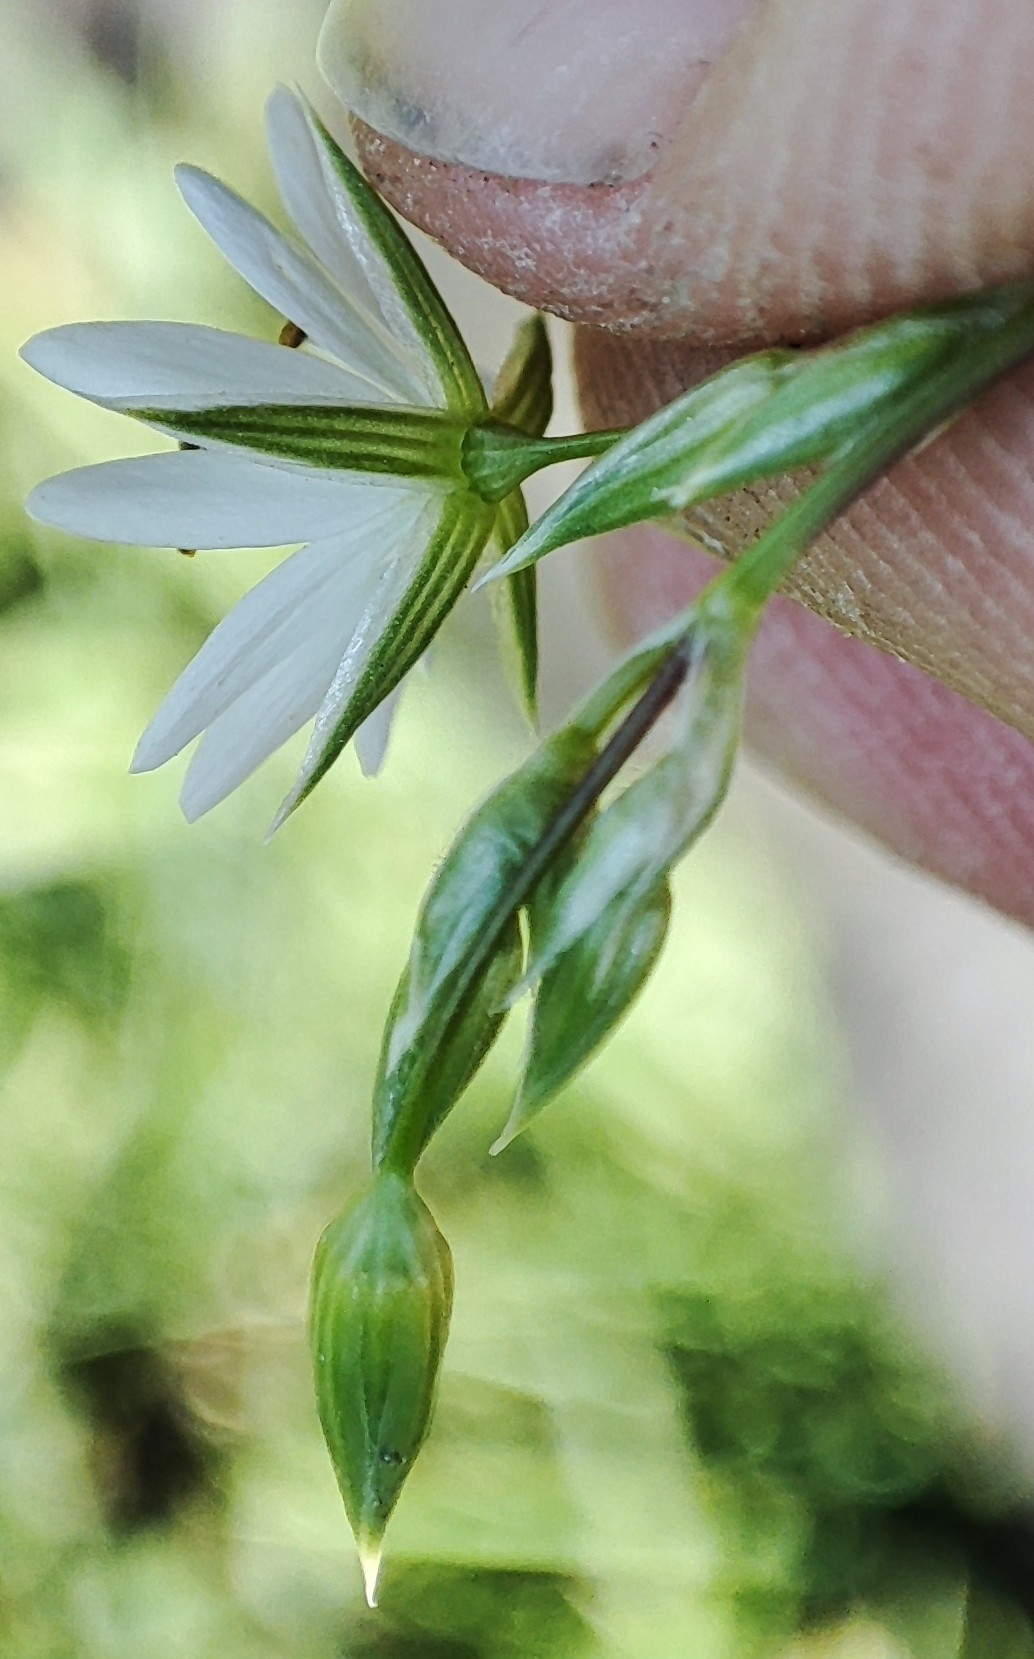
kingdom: Plantae
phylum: Tracheophyta
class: Magnoliopsida
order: Caryophyllales
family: Caryophyllaceae
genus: Stellaria
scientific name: Stellaria graminea
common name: Grass-like starwort
